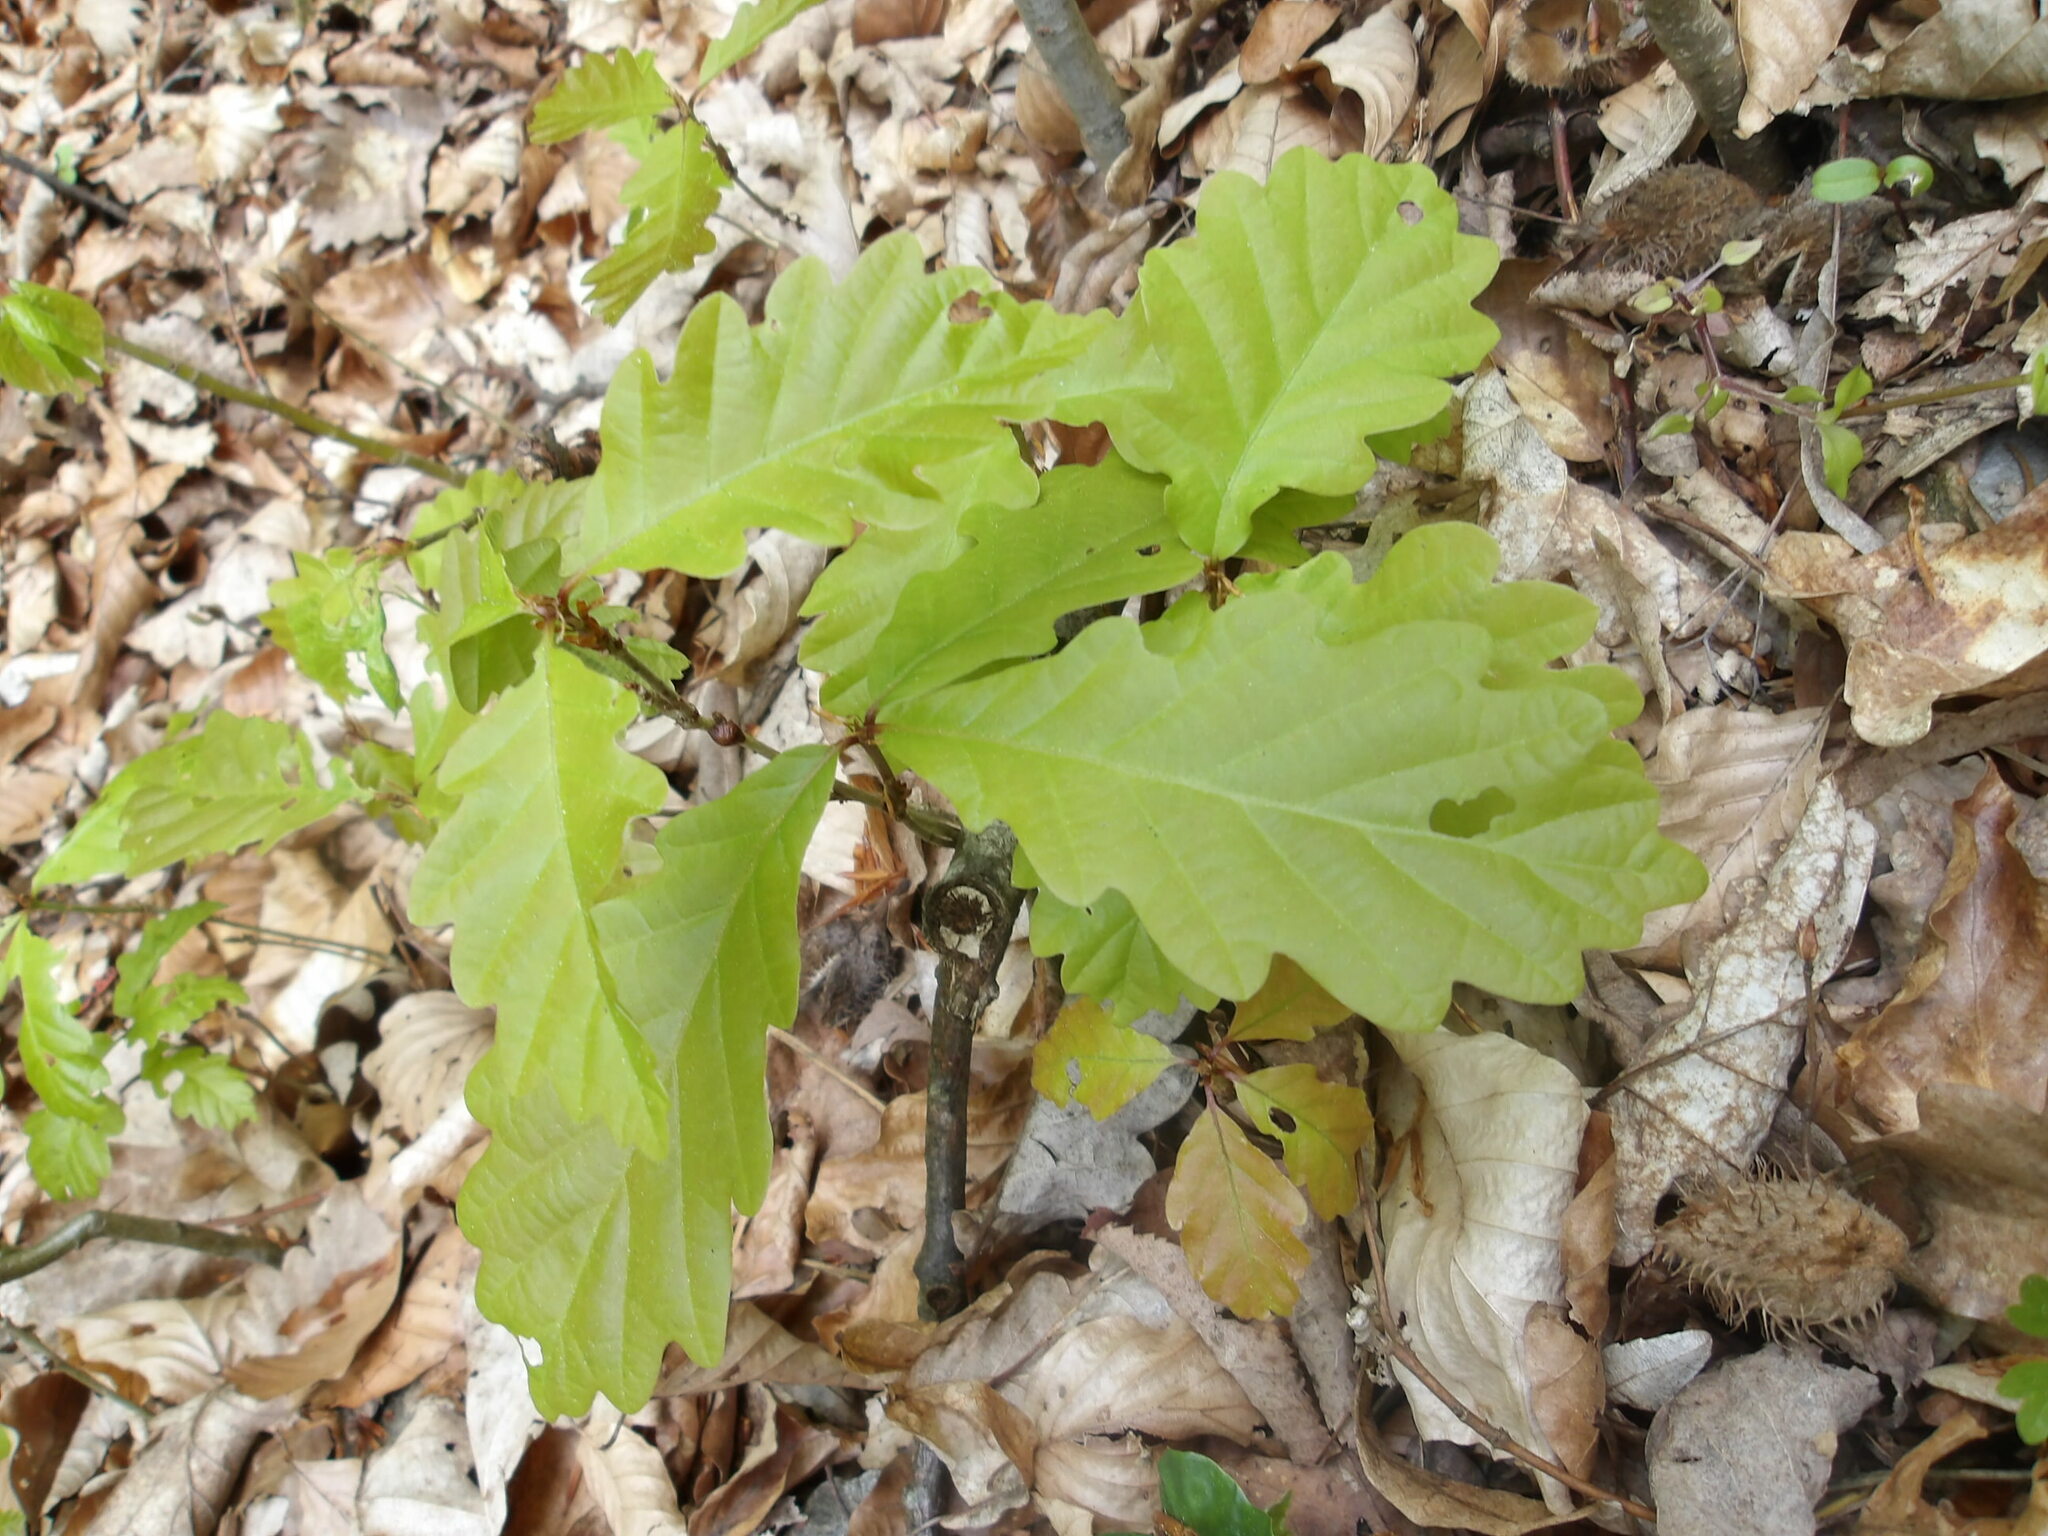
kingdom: Plantae
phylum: Tracheophyta
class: Magnoliopsida
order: Fagales
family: Fagaceae
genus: Quercus
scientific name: Quercus robur
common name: Pedunculate oak
